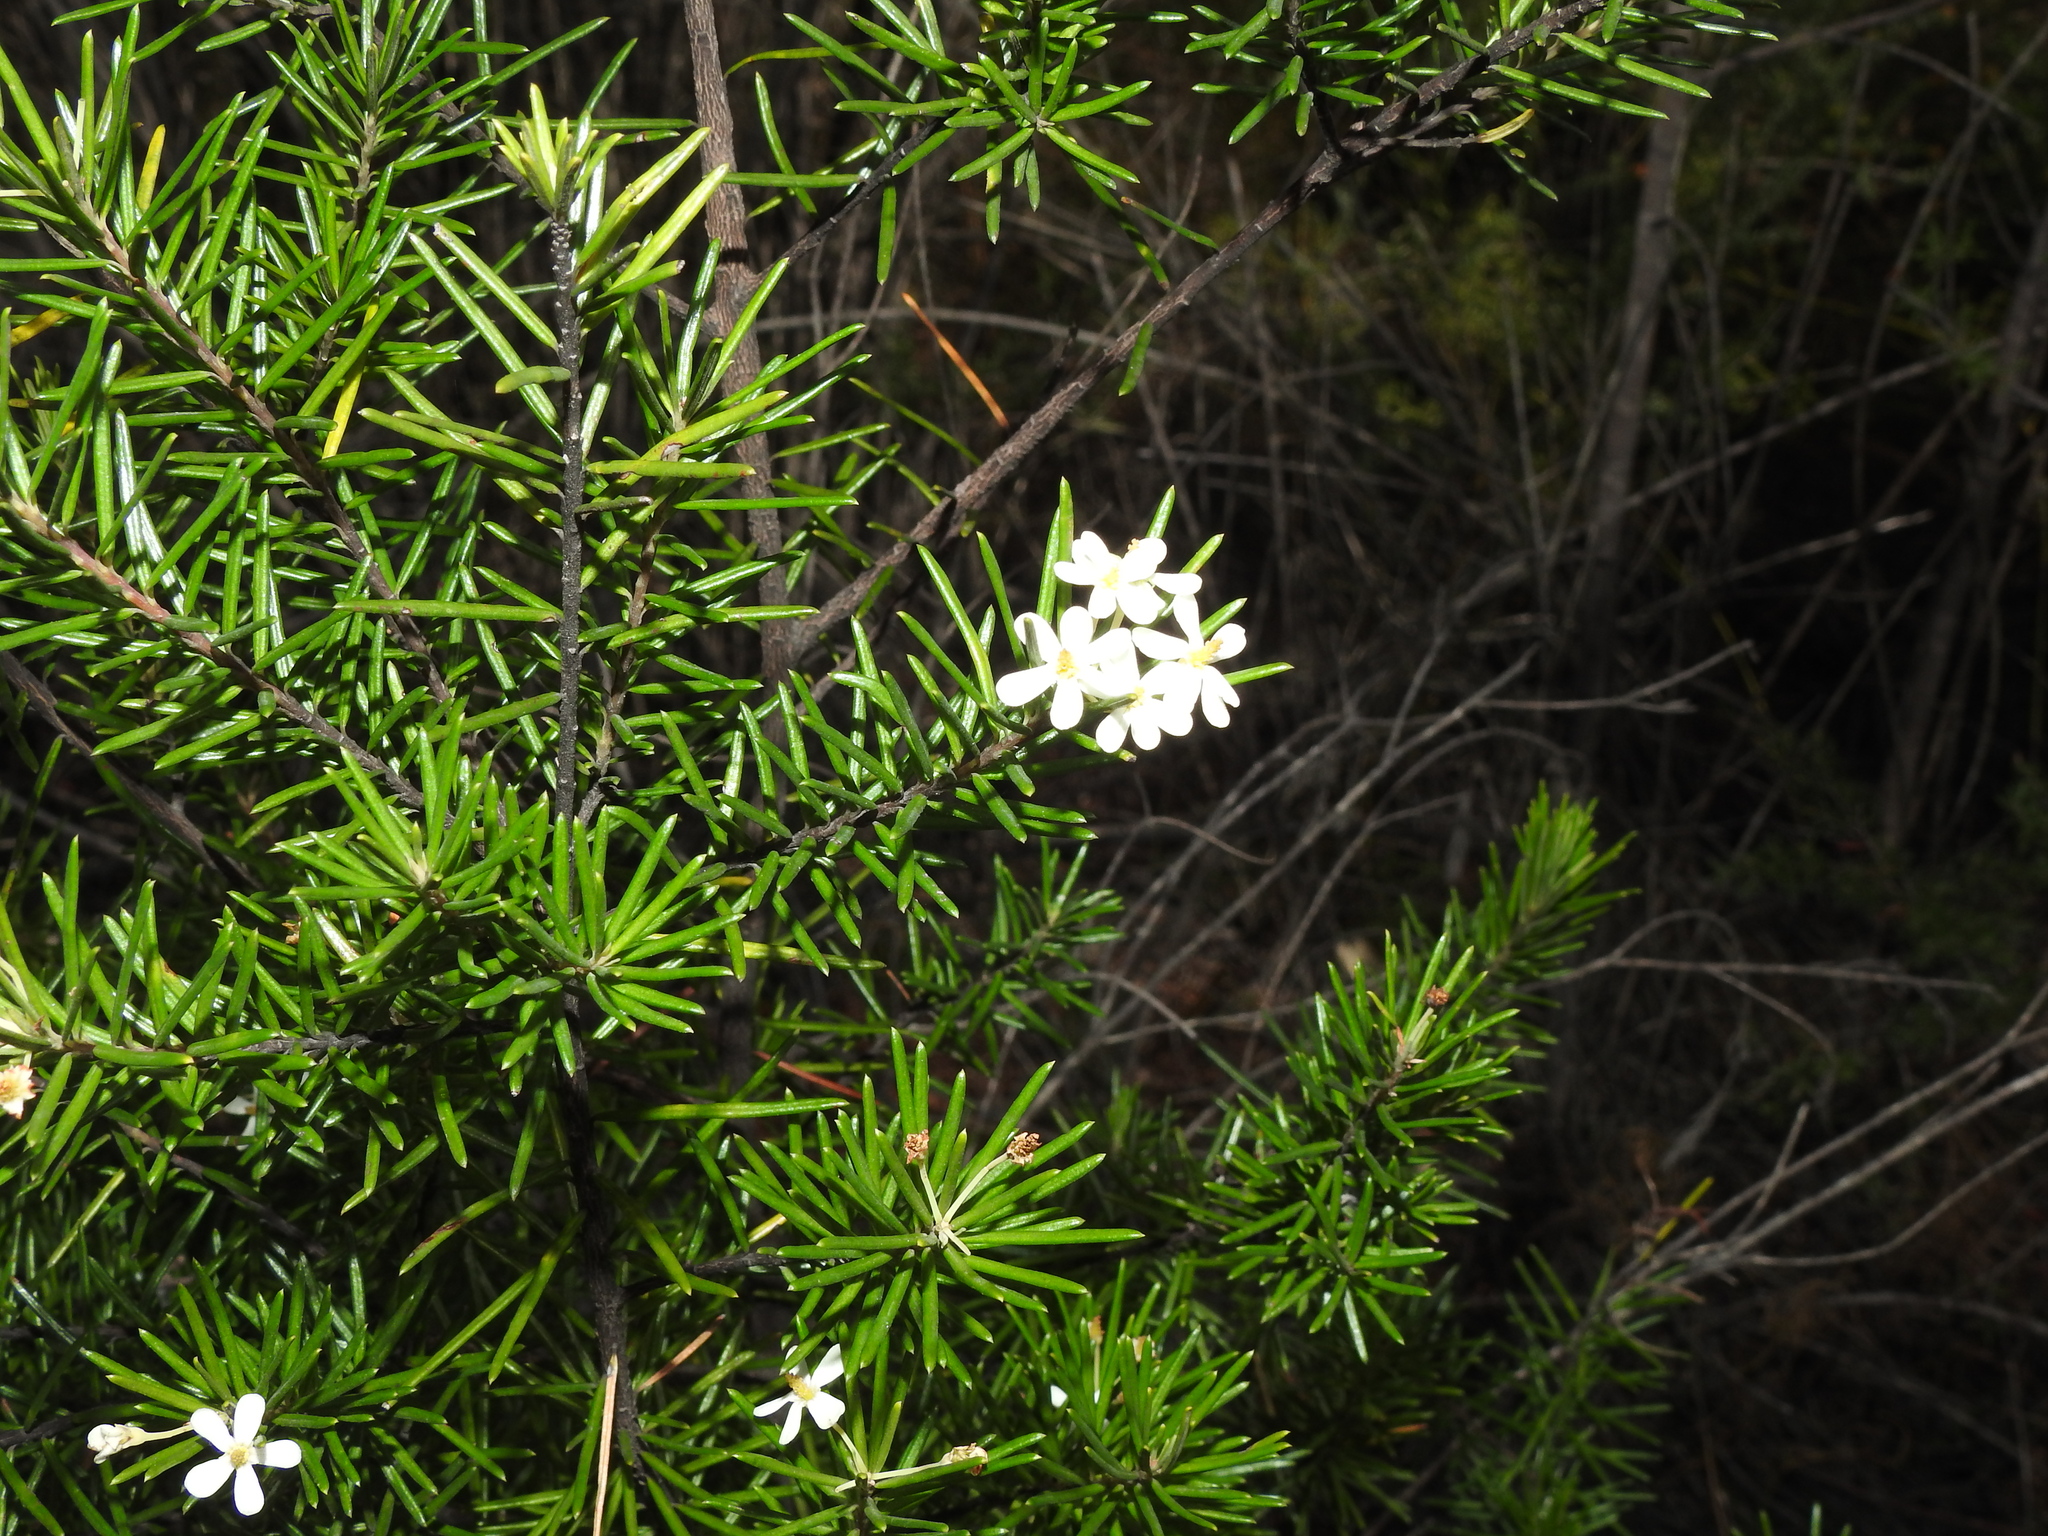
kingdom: Plantae
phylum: Tracheophyta
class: Magnoliopsida
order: Malpighiales
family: Euphorbiaceae
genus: Ricinocarpos
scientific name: Ricinocarpos pinifolius
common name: Weddingbush
